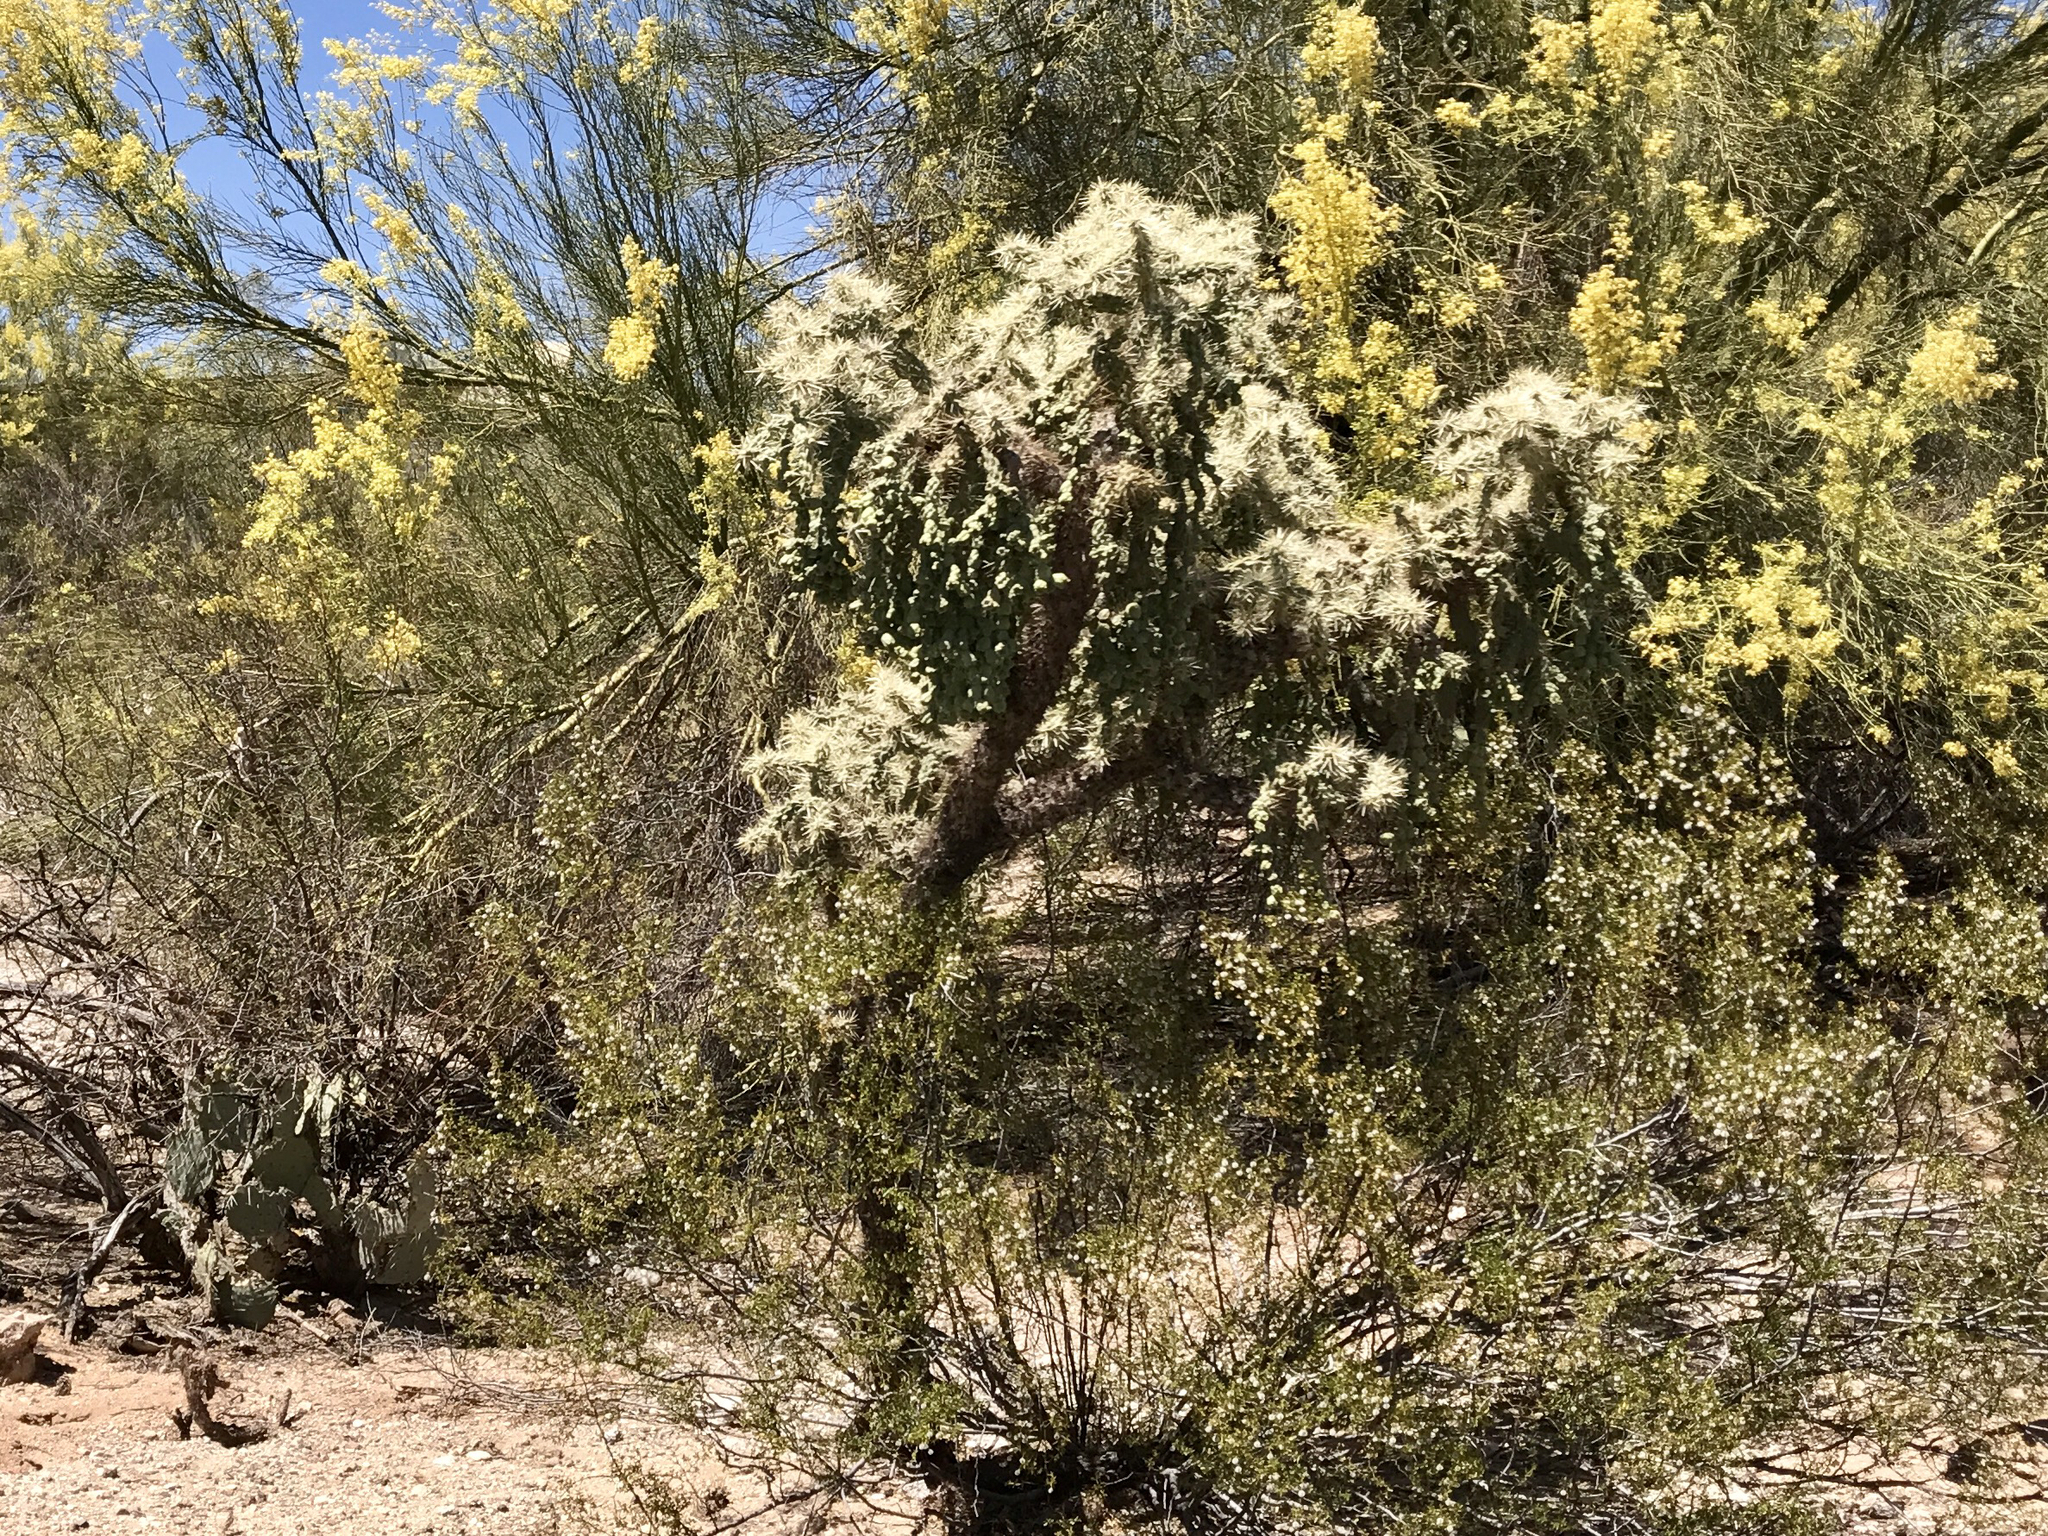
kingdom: Plantae
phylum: Tracheophyta
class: Magnoliopsida
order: Caryophyllales
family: Cactaceae
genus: Cylindropuntia
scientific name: Cylindropuntia fulgida
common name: Jumping cholla
